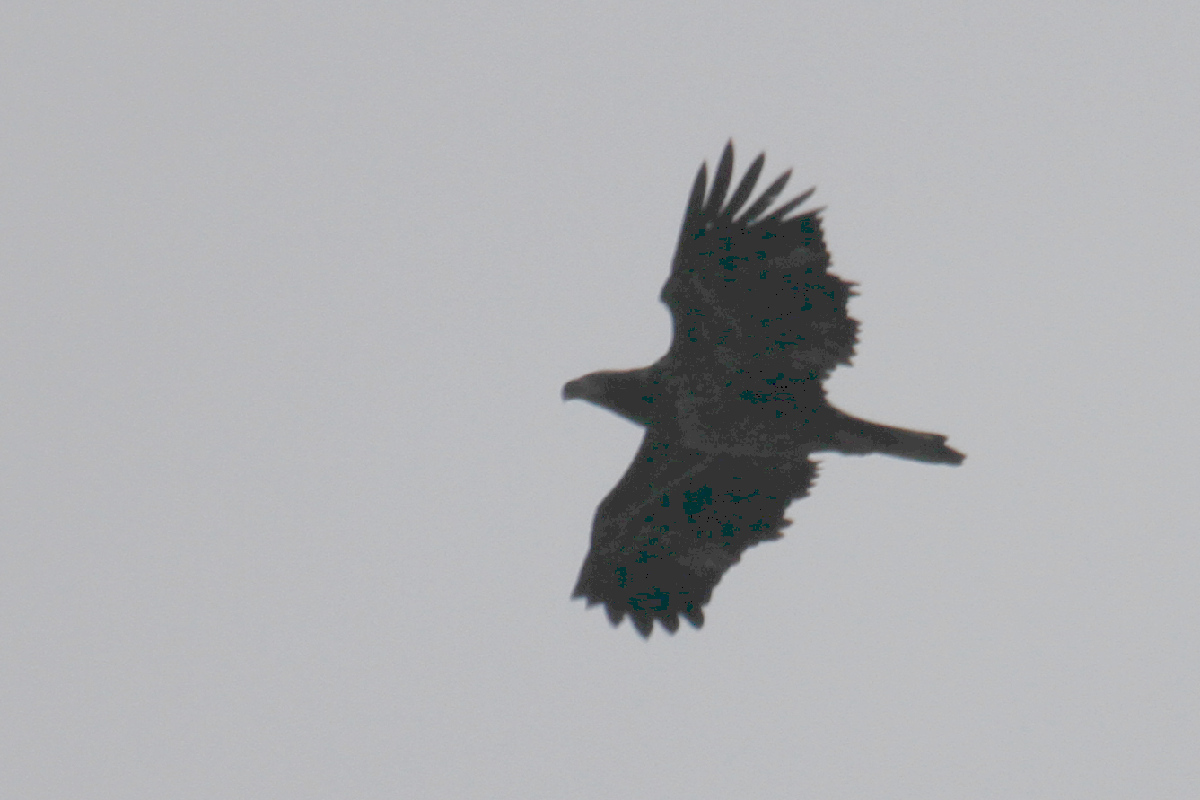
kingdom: Animalia
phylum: Chordata
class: Aves
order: Accipitriformes
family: Accipitridae
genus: Haliaeetus
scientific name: Haliaeetus leucocephalus
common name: Bald eagle
